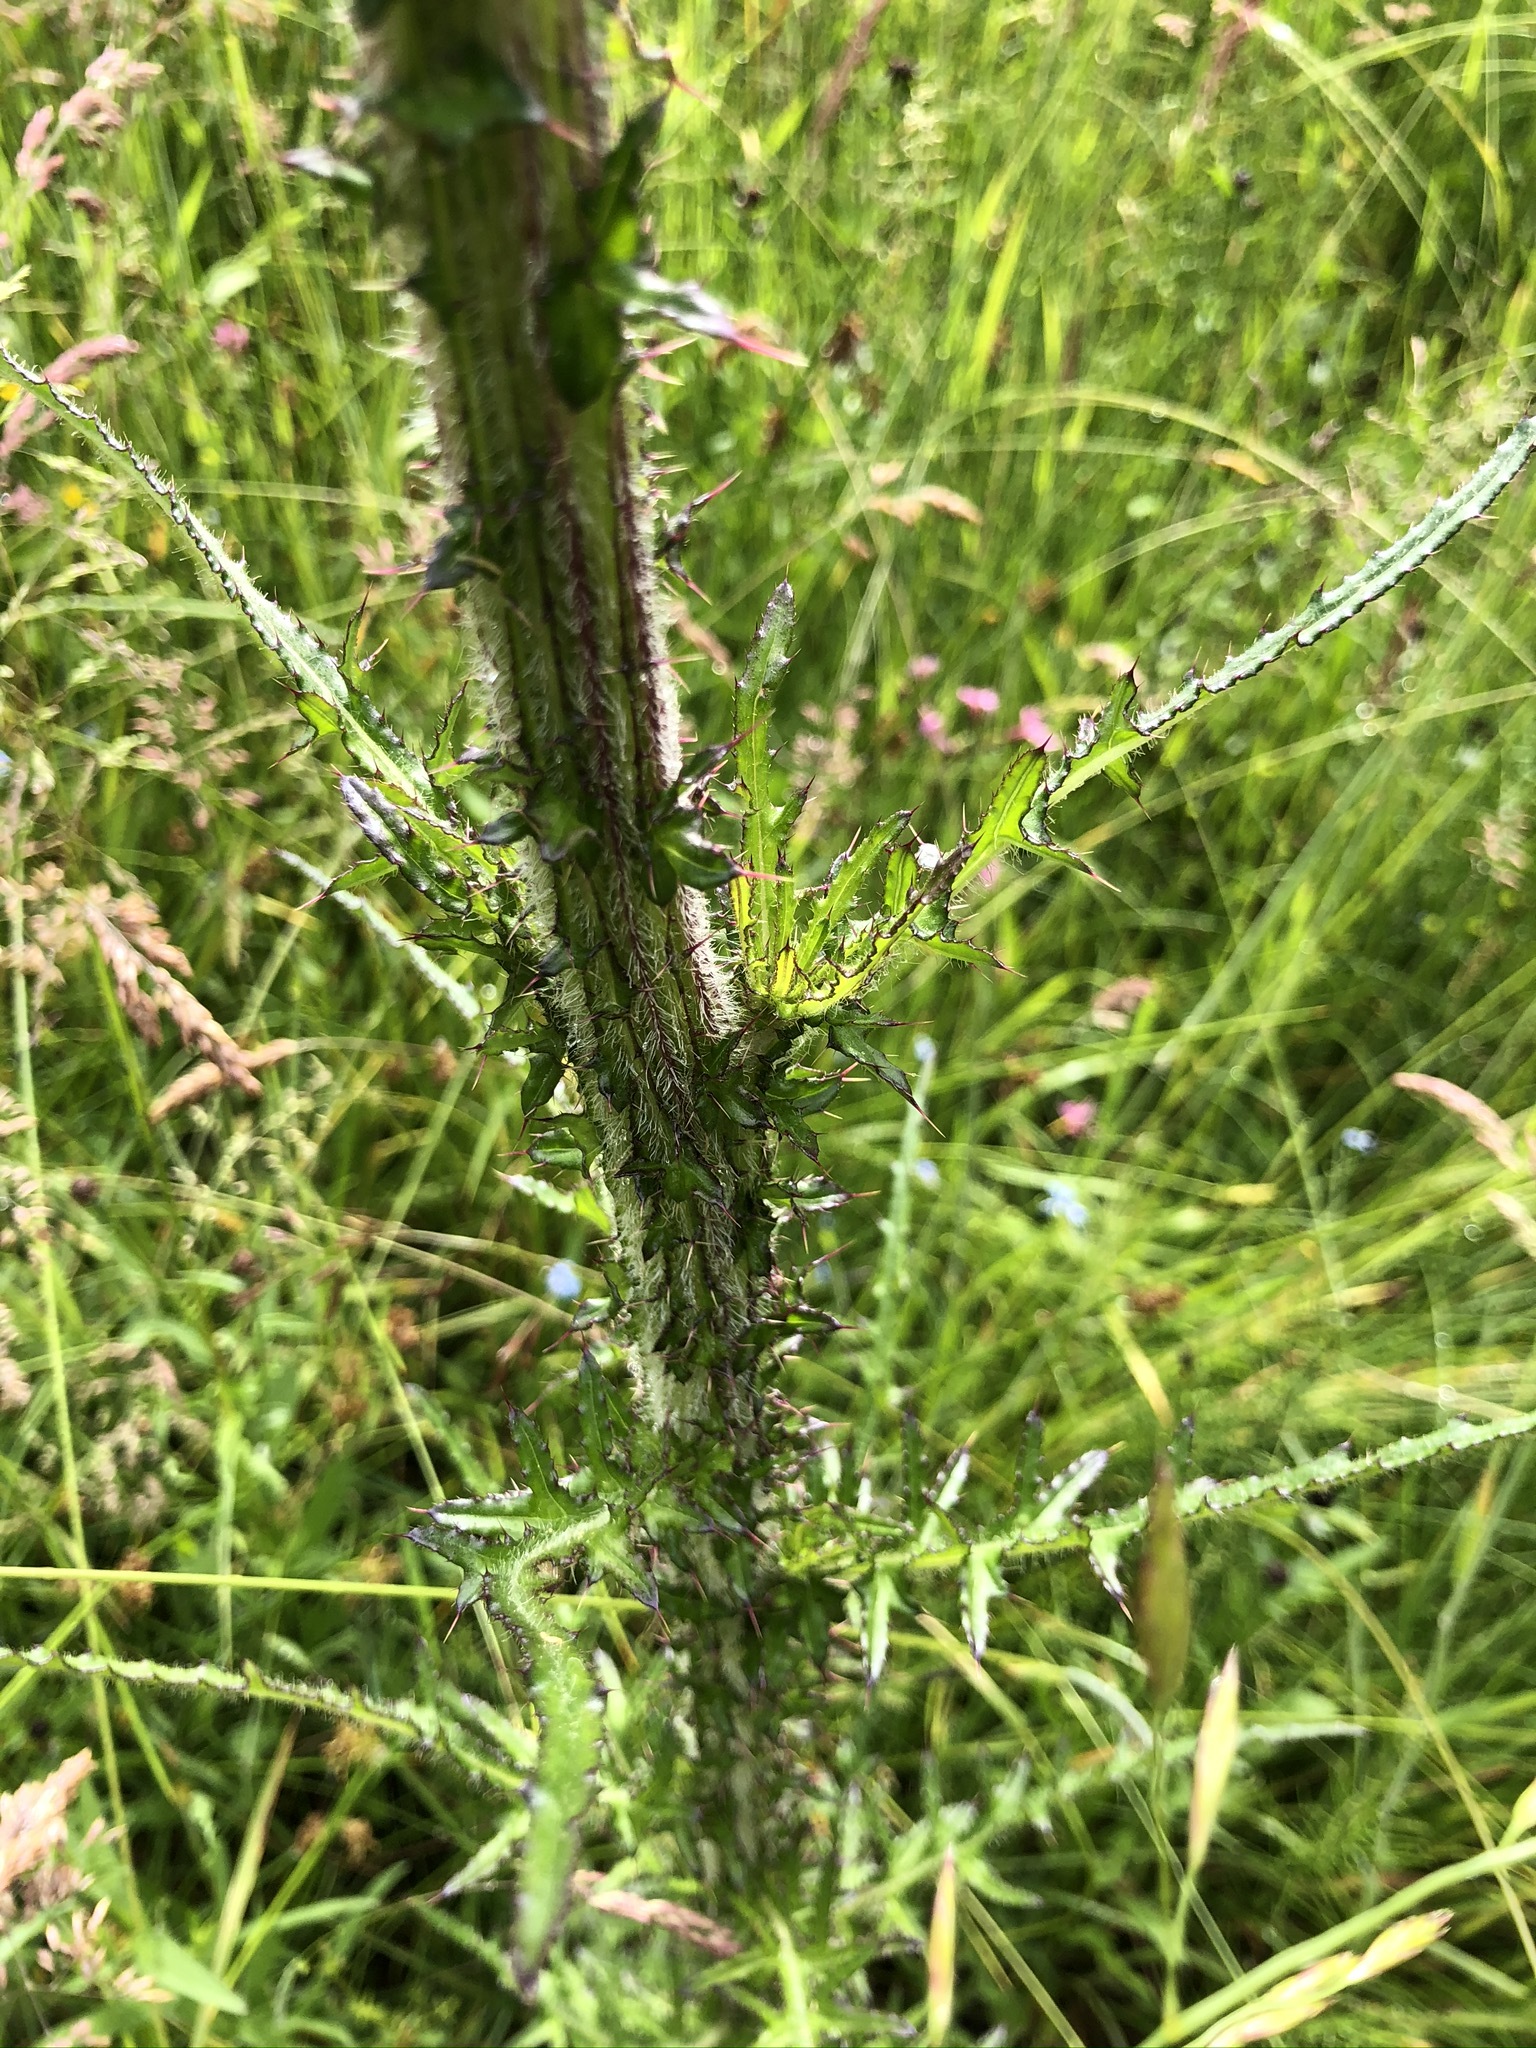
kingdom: Plantae
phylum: Tracheophyta
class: Magnoliopsida
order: Asterales
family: Asteraceae
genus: Cirsium
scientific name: Cirsium palustre
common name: Marsh thistle
